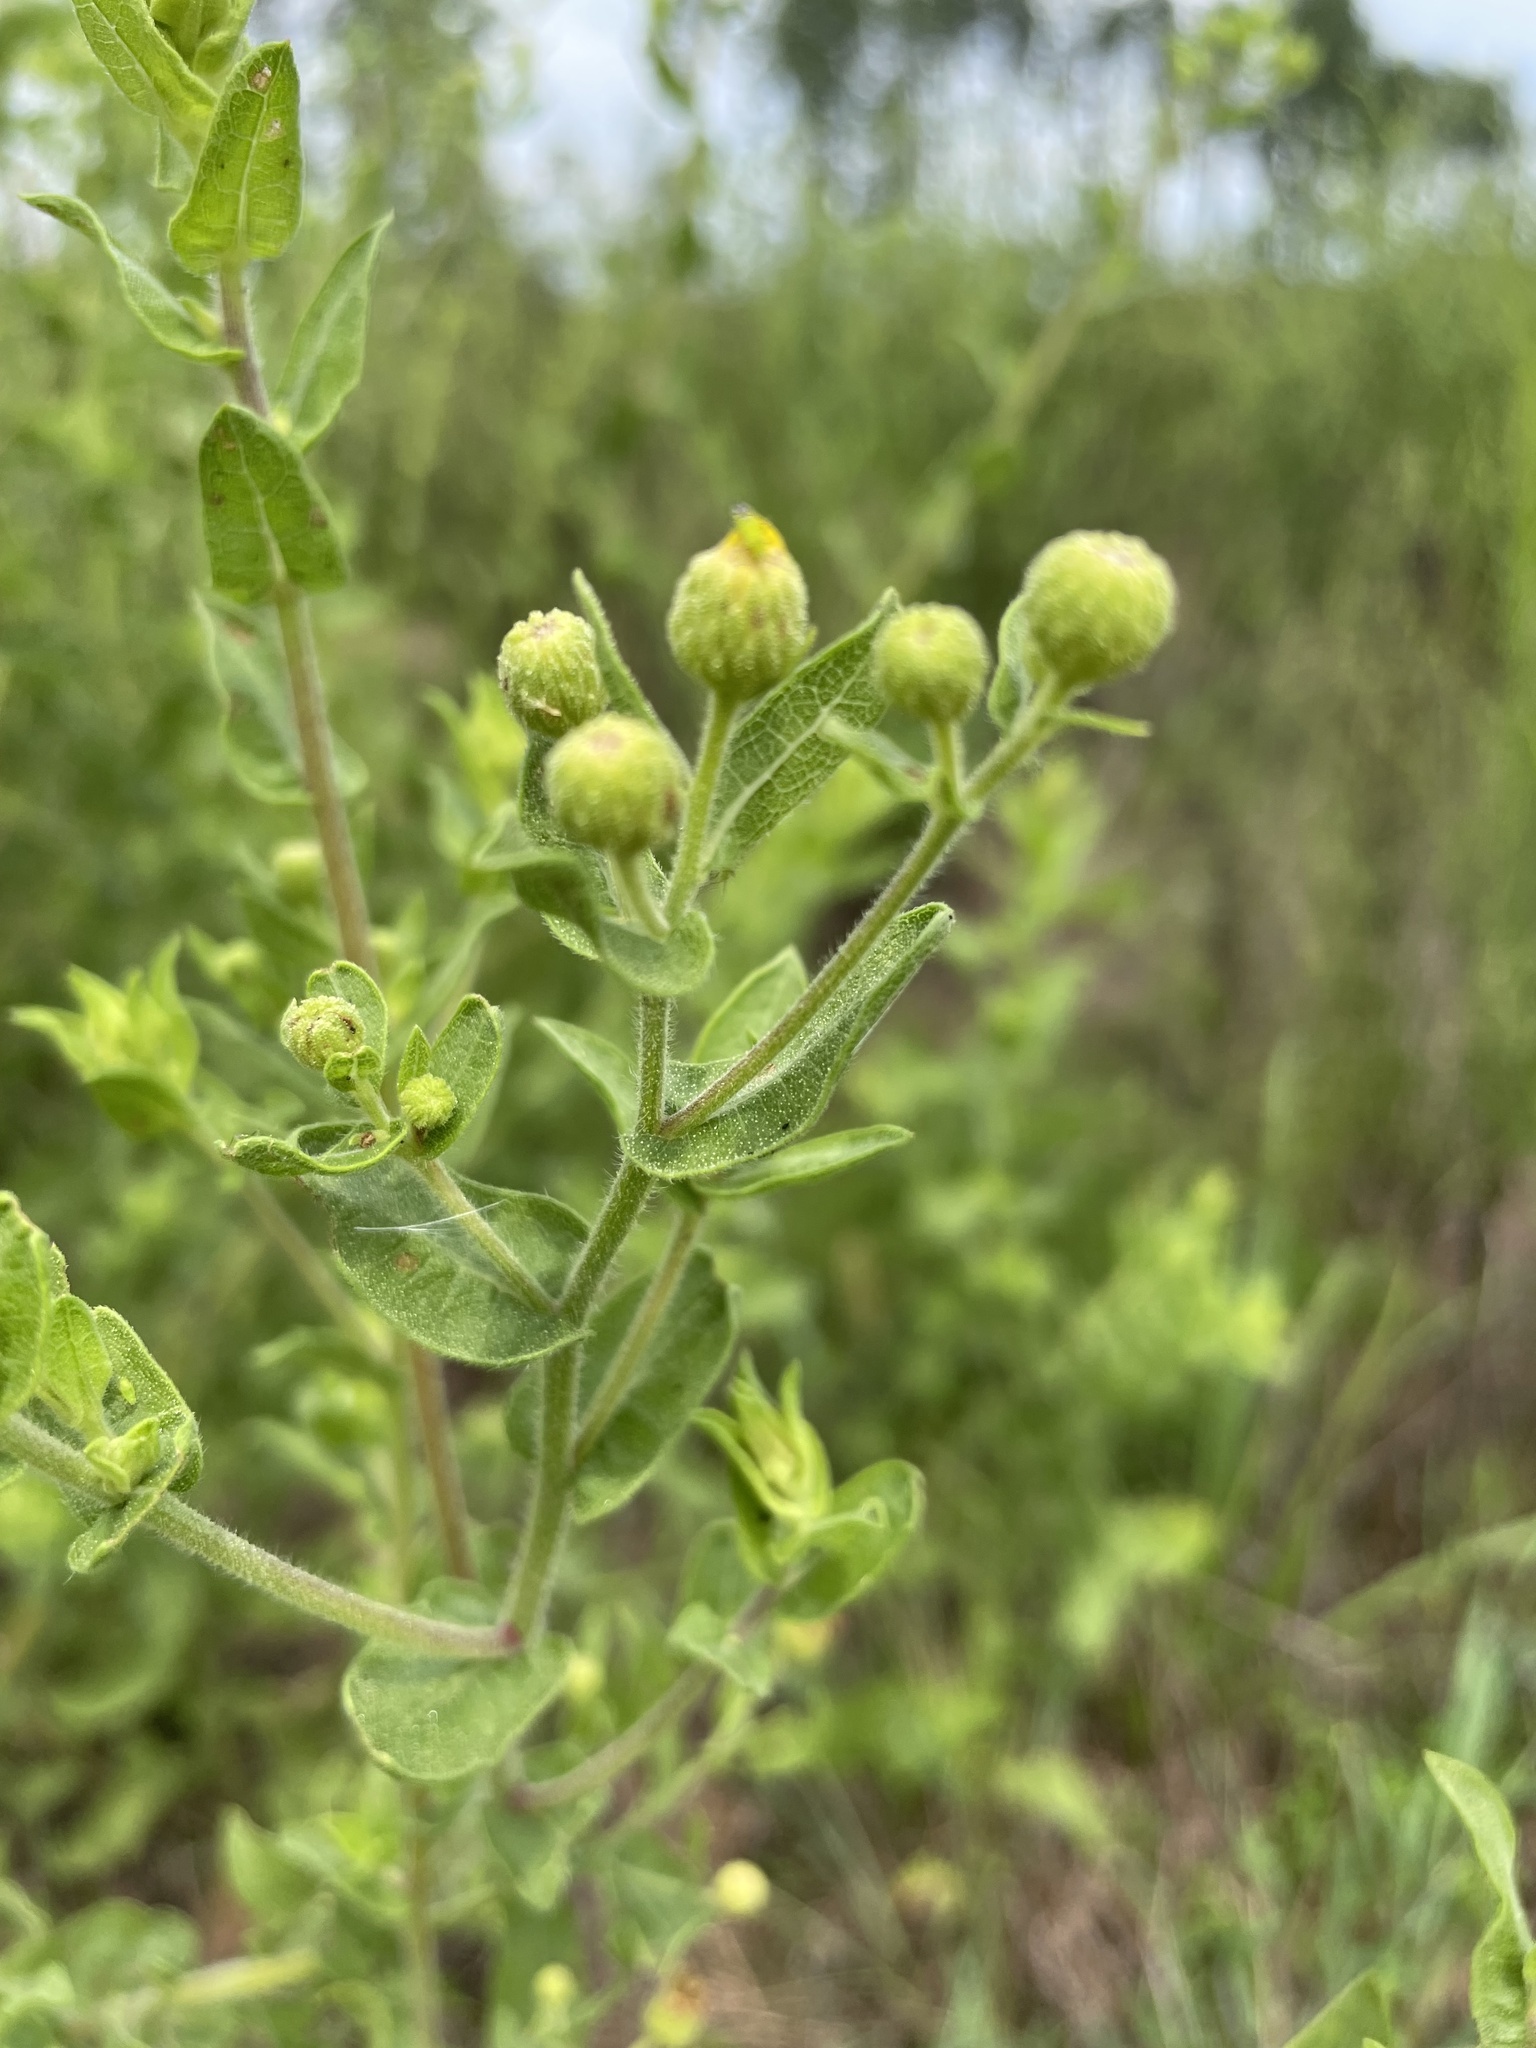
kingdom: Plantae
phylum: Tracheophyta
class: Magnoliopsida
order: Asterales
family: Asteraceae
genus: Heterotheca
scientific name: Heterotheca subaxillaris
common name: Camphorweed
